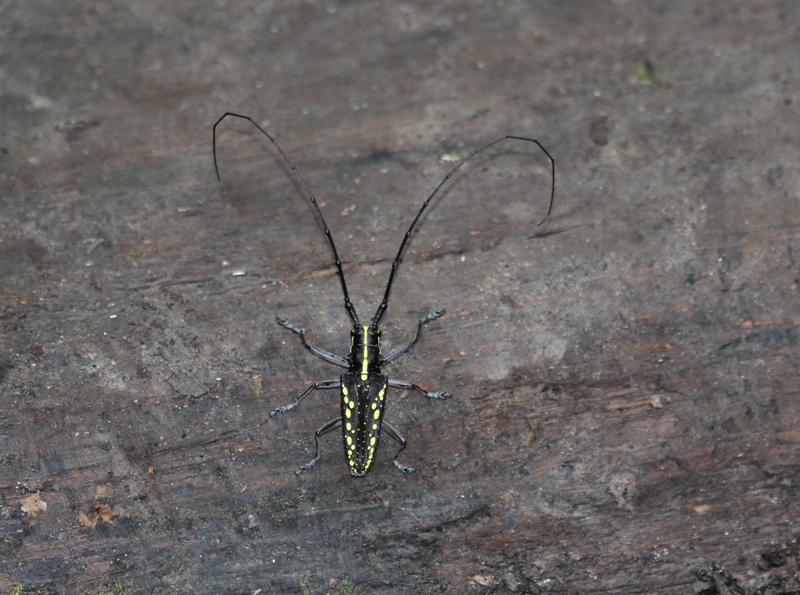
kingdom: Animalia
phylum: Arthropoda
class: Insecta
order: Coleoptera
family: Cerambycidae
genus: Taeniotes
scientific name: Taeniotes orbignyi
